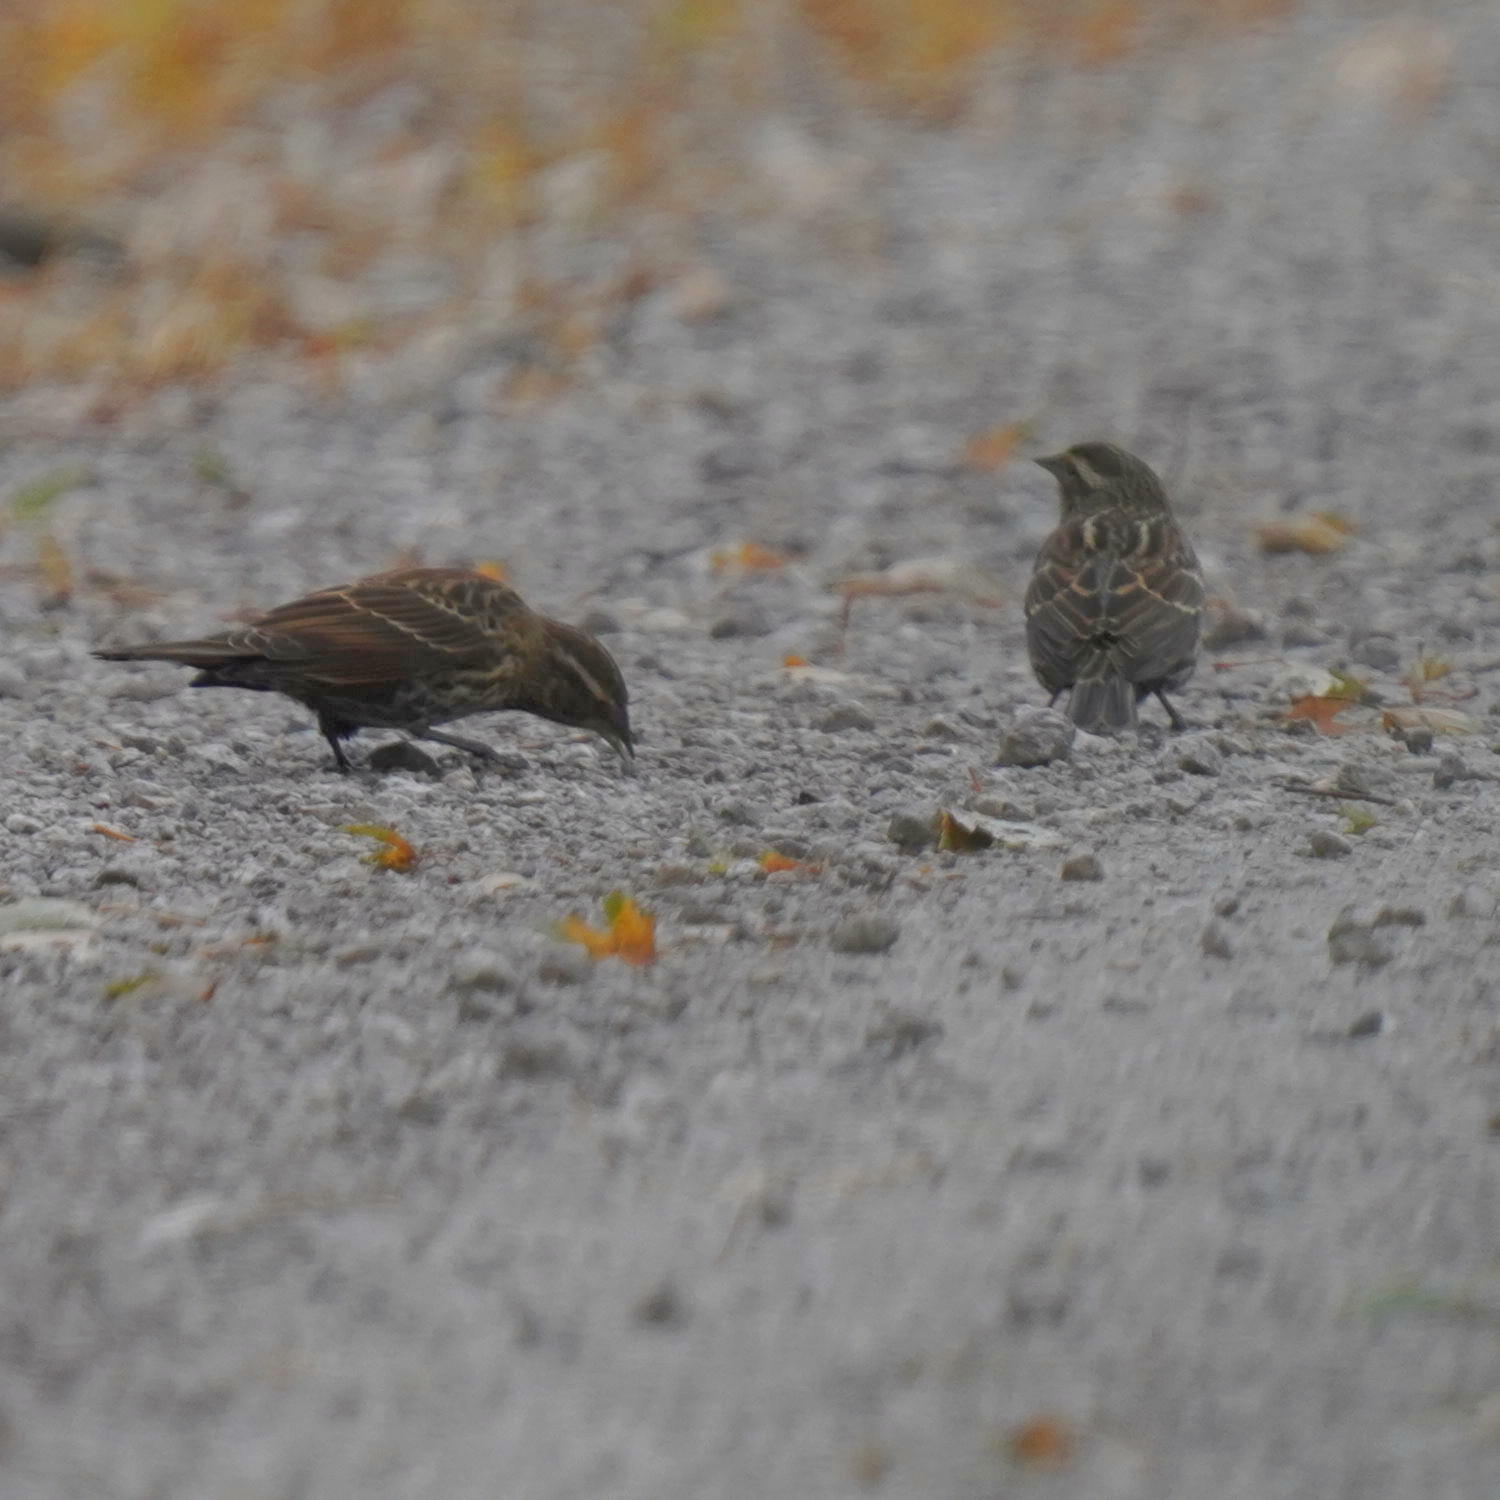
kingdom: Animalia
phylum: Chordata
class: Aves
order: Passeriformes
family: Icteridae
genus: Agelaius
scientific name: Agelaius phoeniceus
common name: Red-winged blackbird
